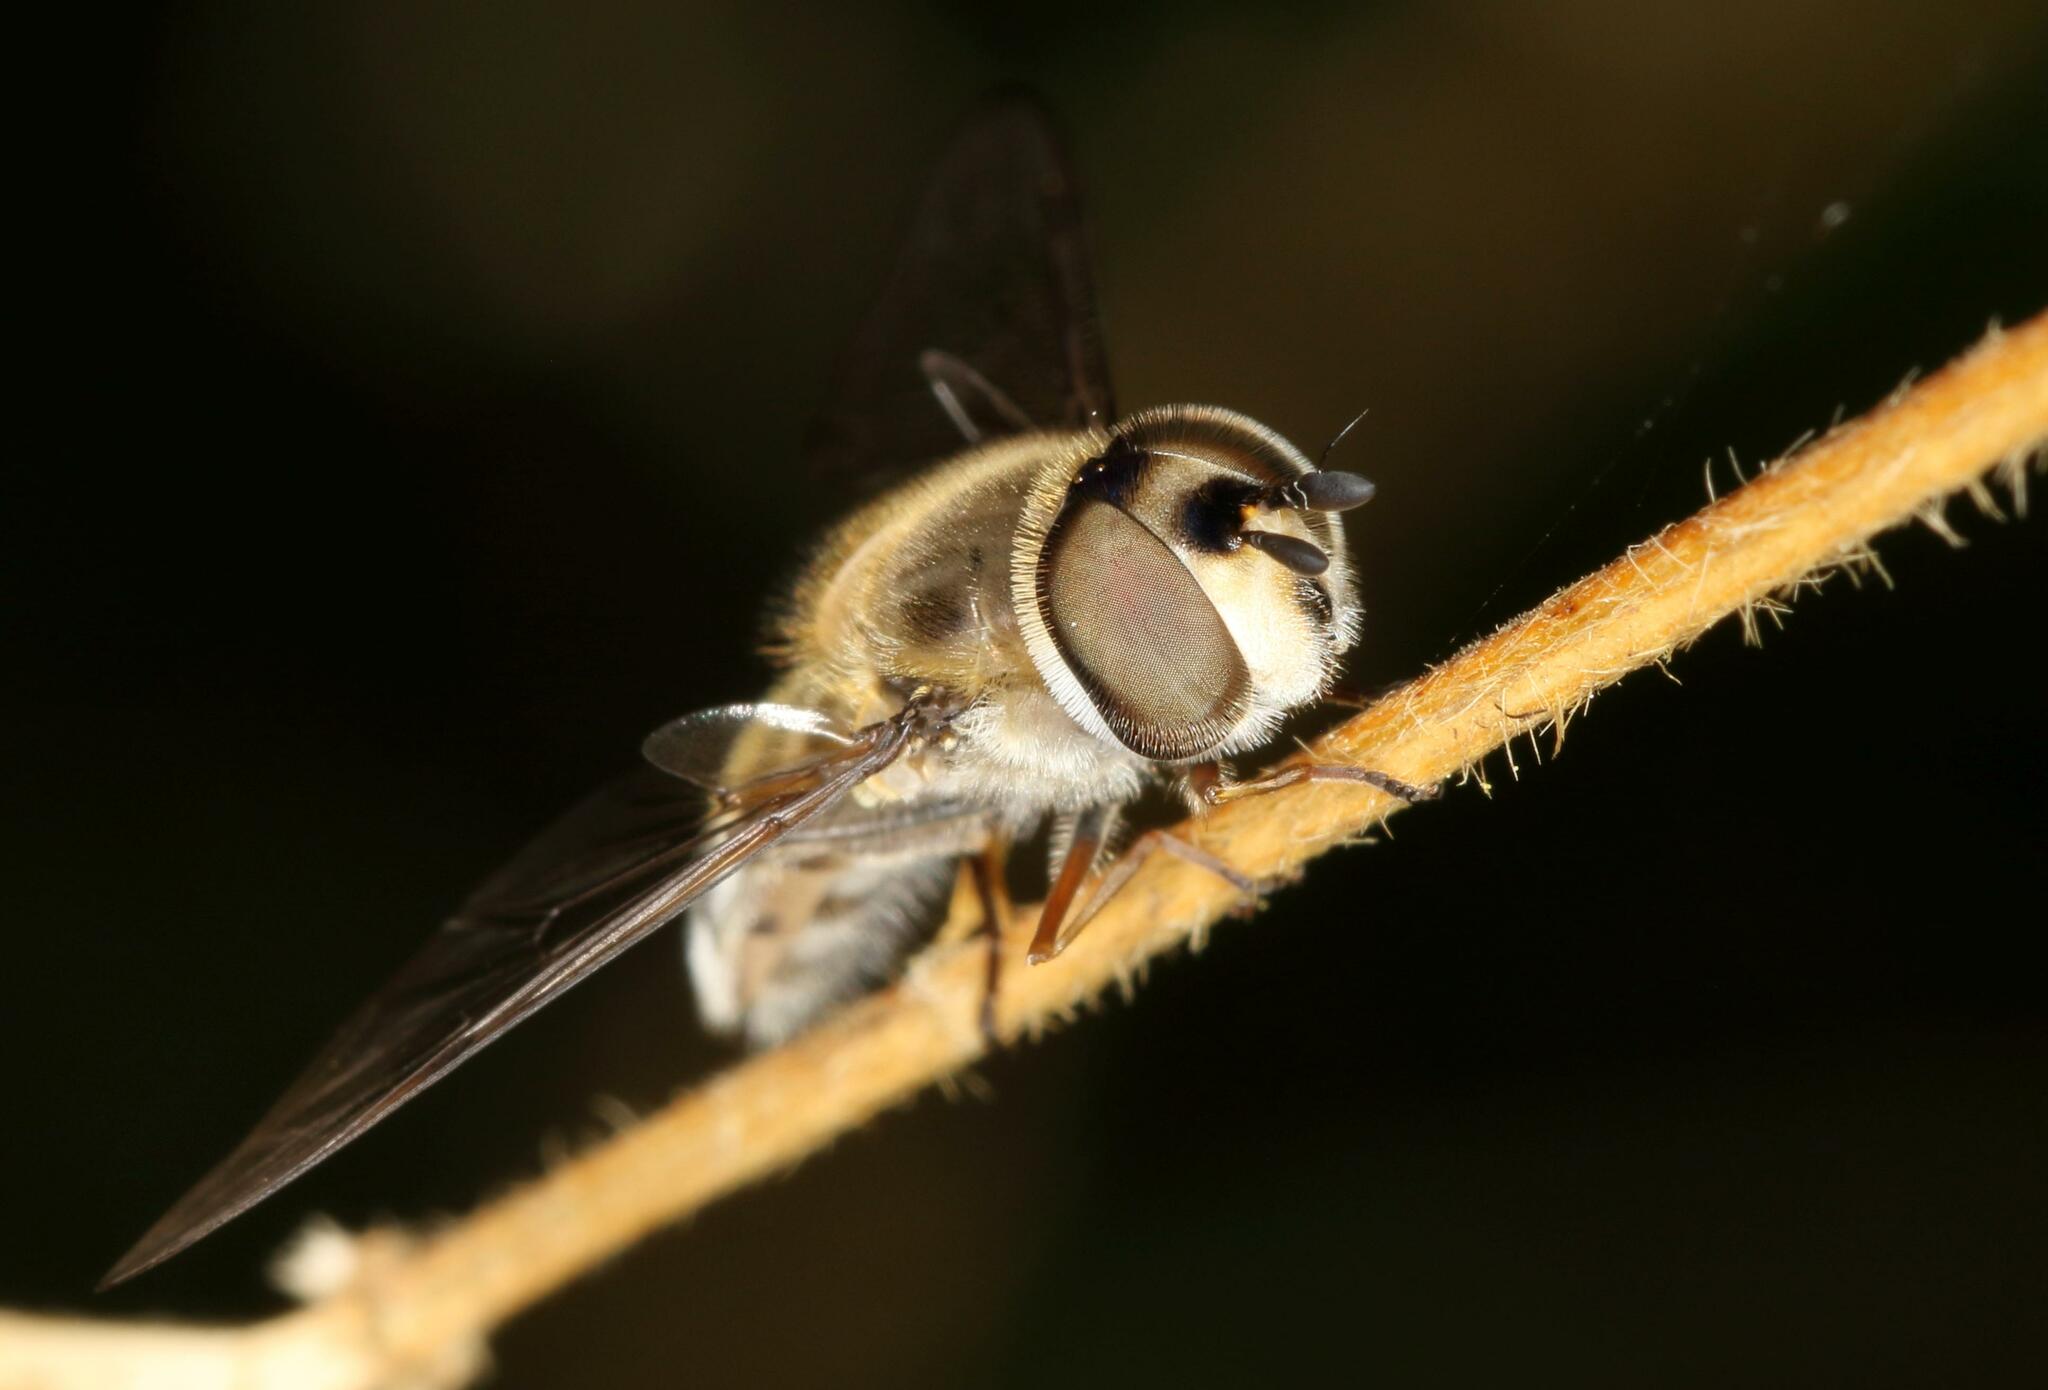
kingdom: Animalia
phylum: Arthropoda
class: Insecta
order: Diptera
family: Syrphidae
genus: Betasyrphus
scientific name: Betasyrphus adligatus
